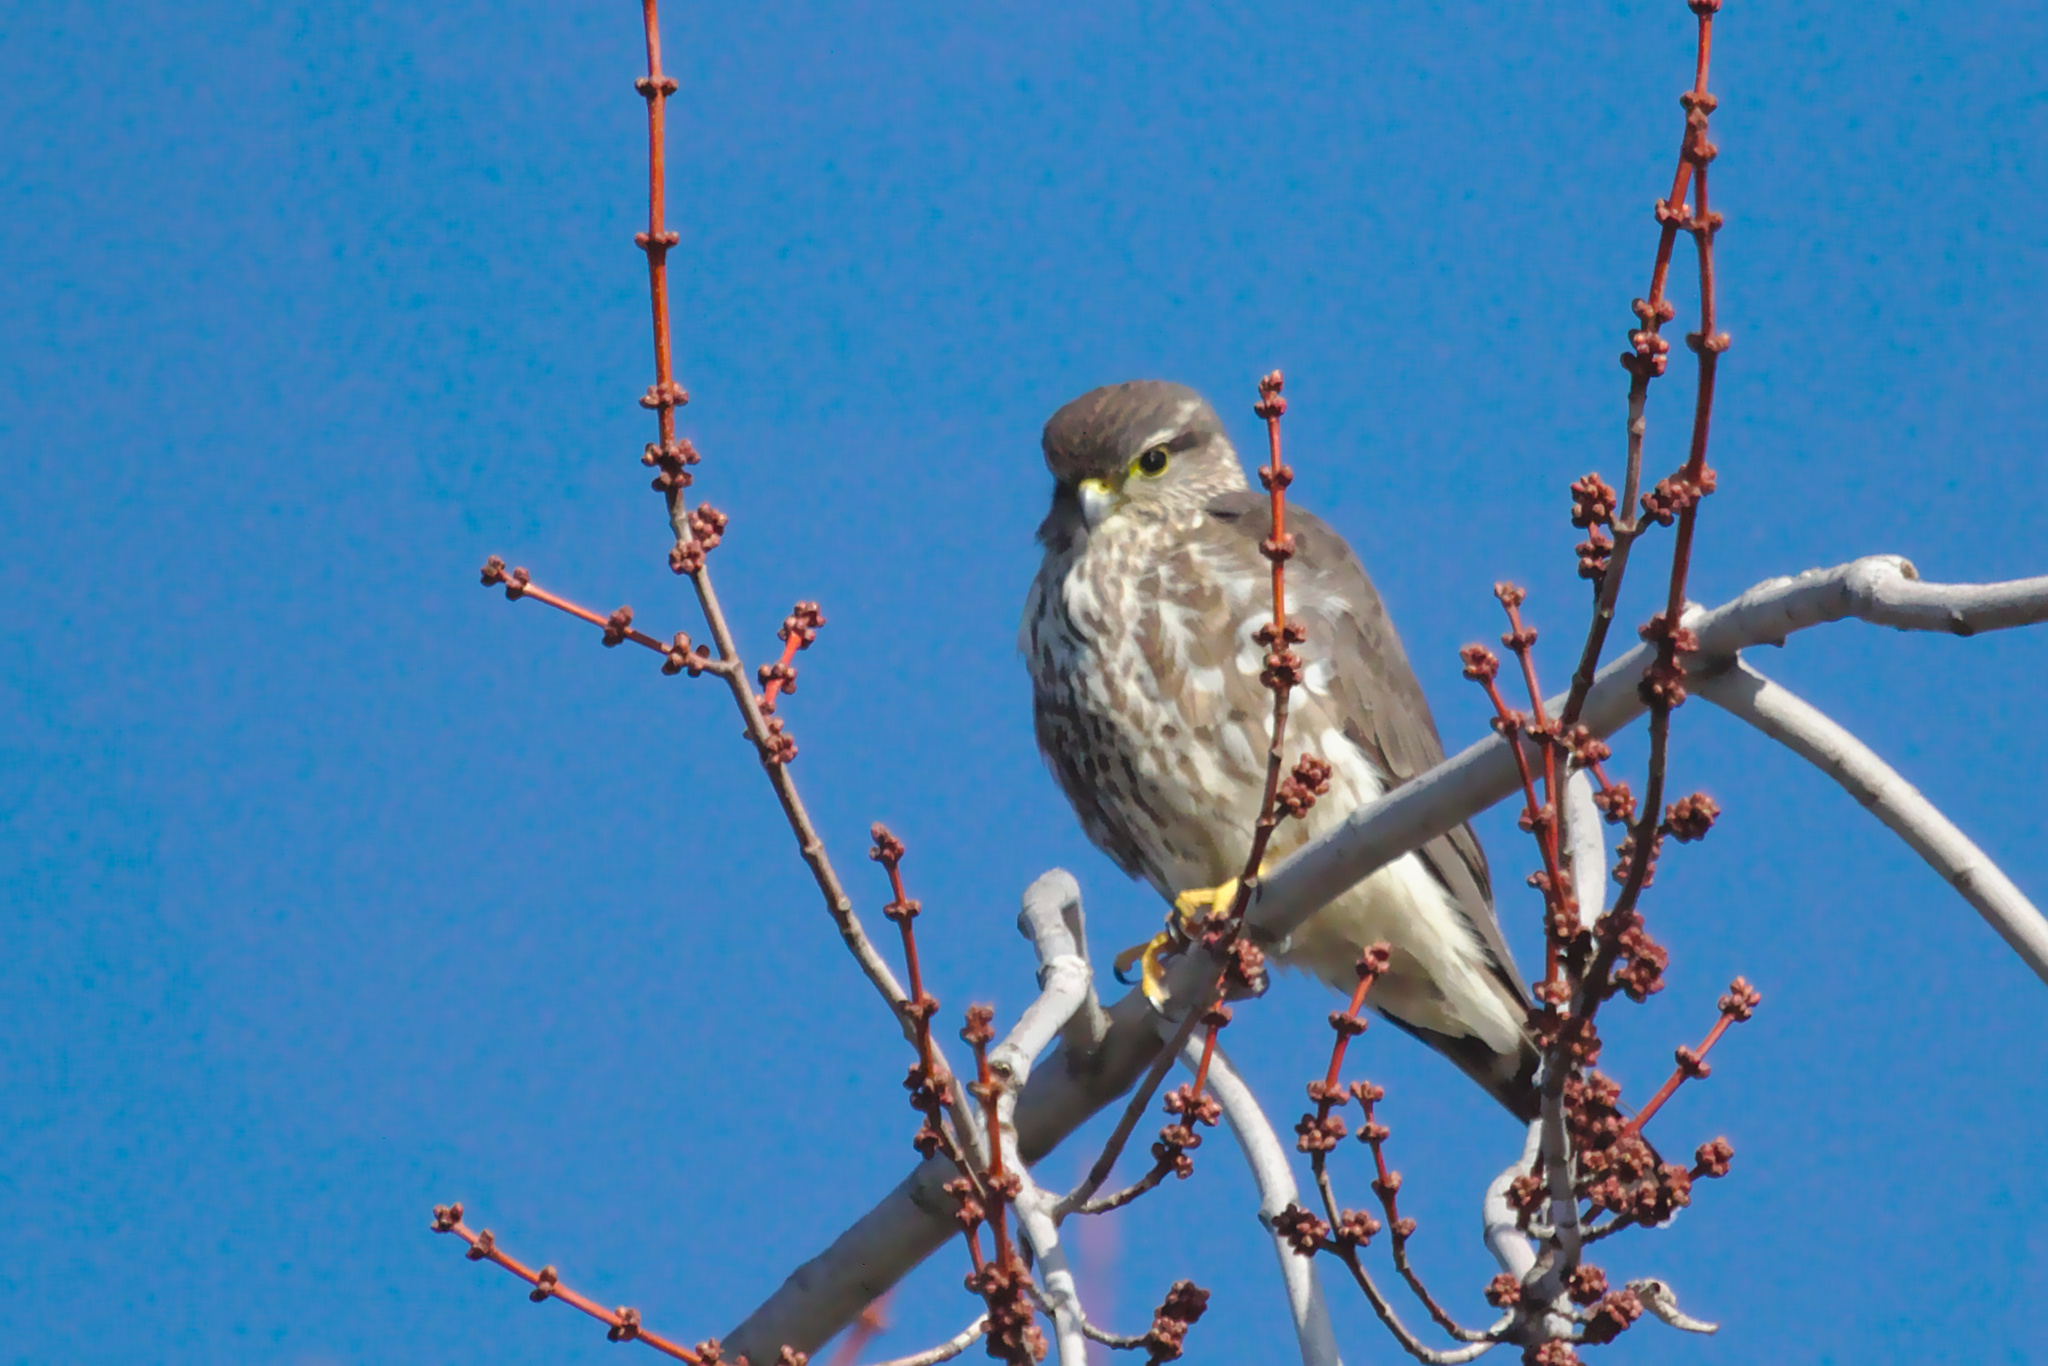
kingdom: Animalia
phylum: Chordata
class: Aves
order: Falconiformes
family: Falconidae
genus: Falco
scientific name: Falco columbarius
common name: Merlin
